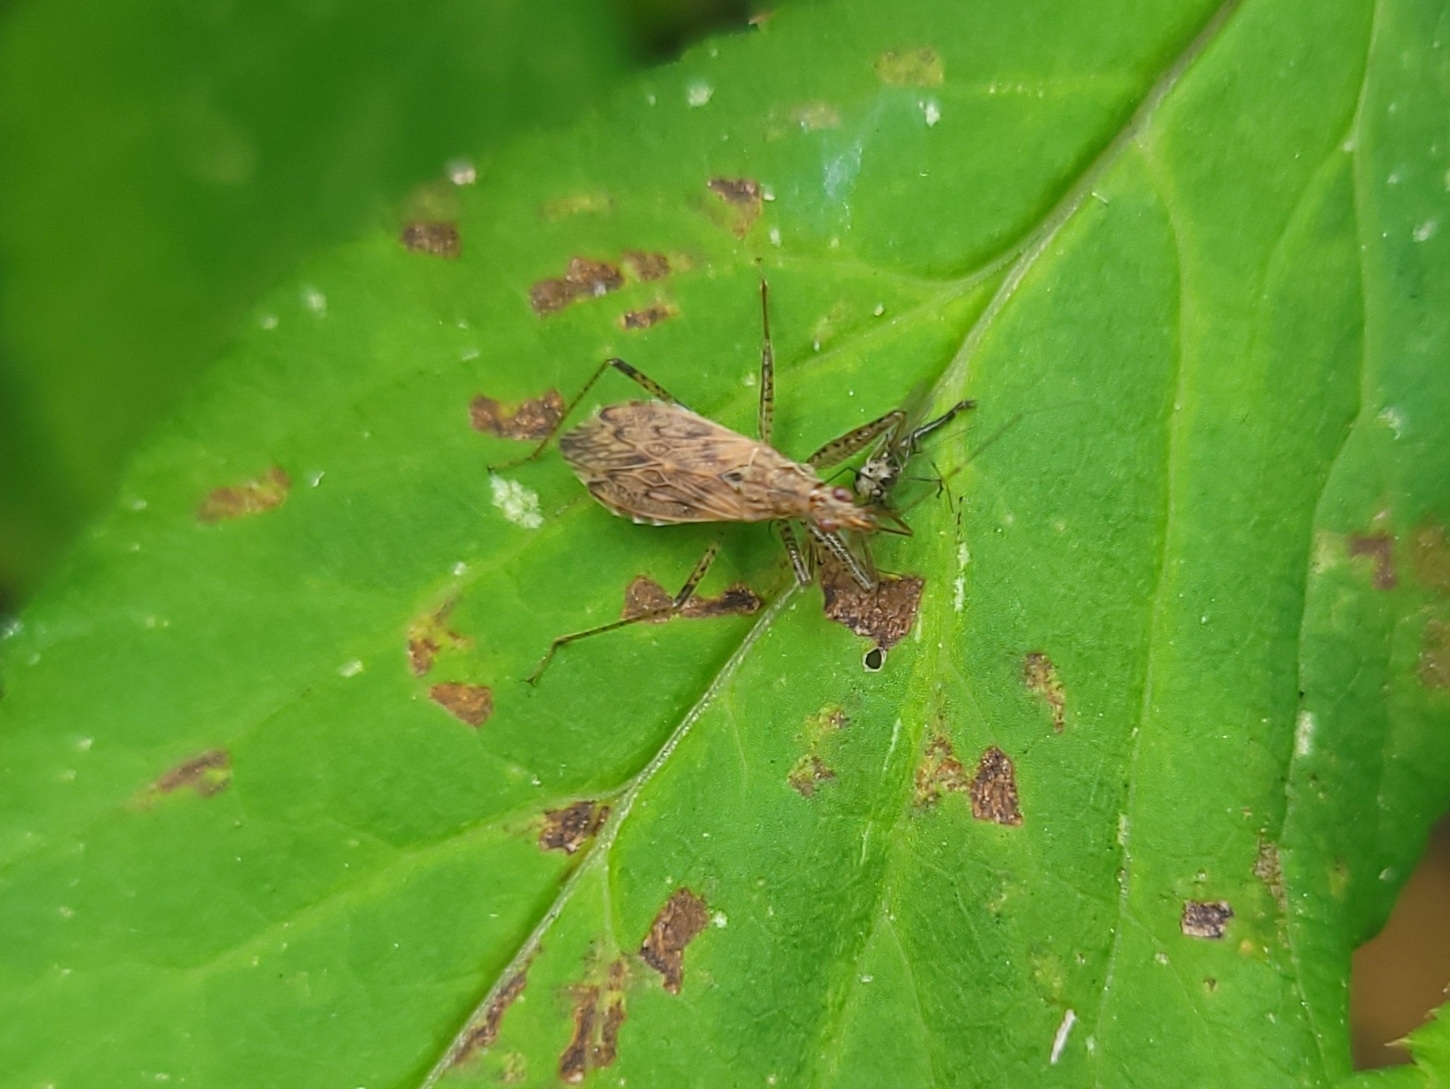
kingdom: Animalia
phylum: Arthropoda
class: Insecta
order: Hemiptera
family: Nabidae
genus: Nabis
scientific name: Nabis roseipennis
